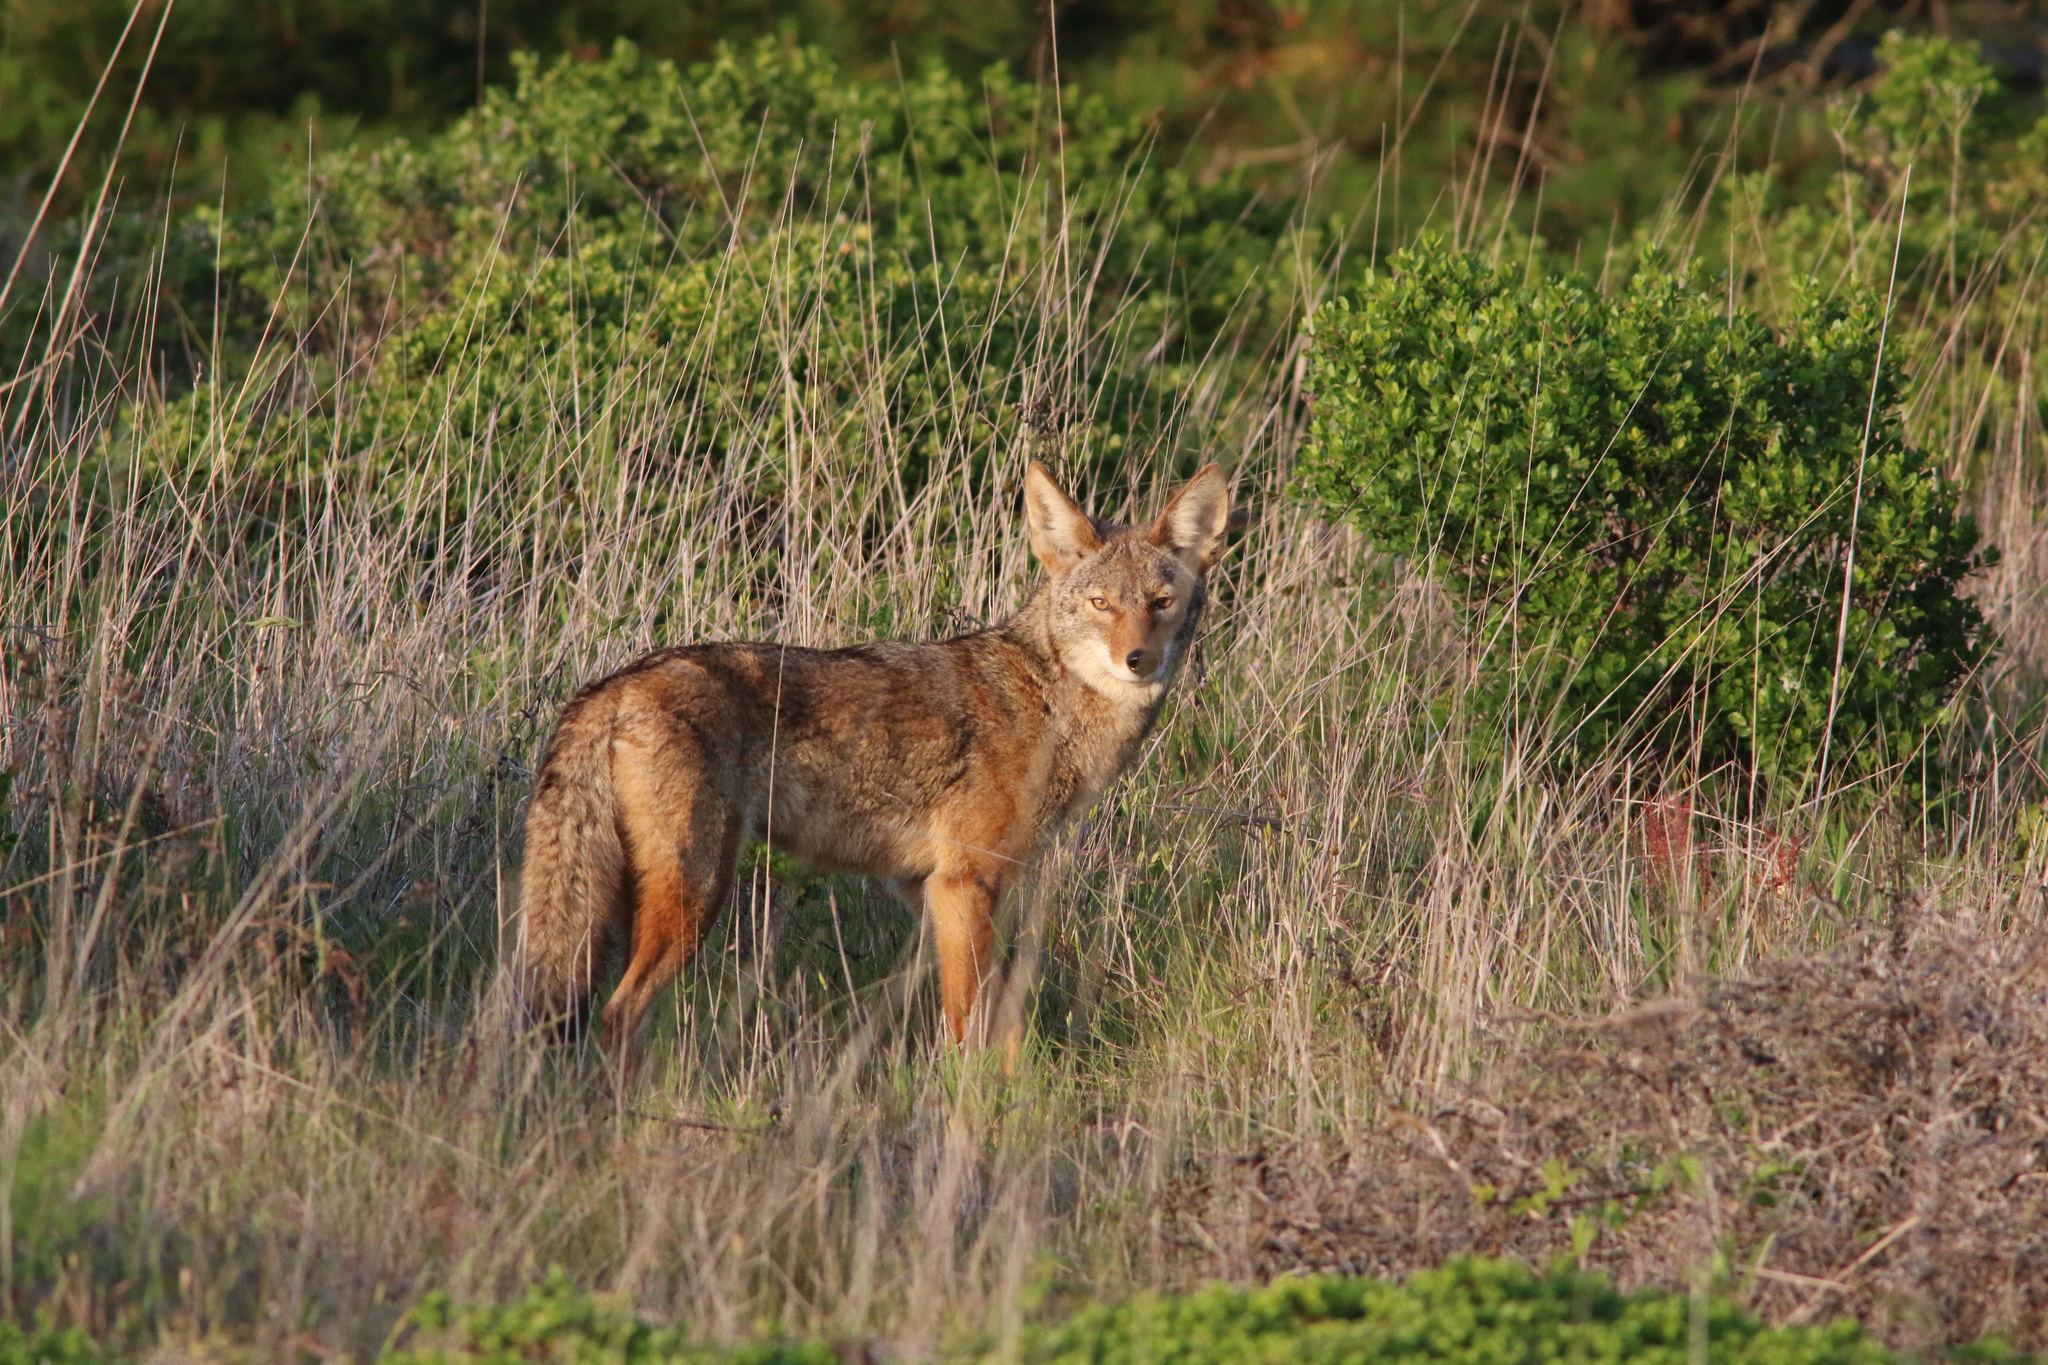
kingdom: Animalia
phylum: Chordata
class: Mammalia
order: Carnivora
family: Canidae
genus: Canis
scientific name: Canis latrans
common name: Coyote
